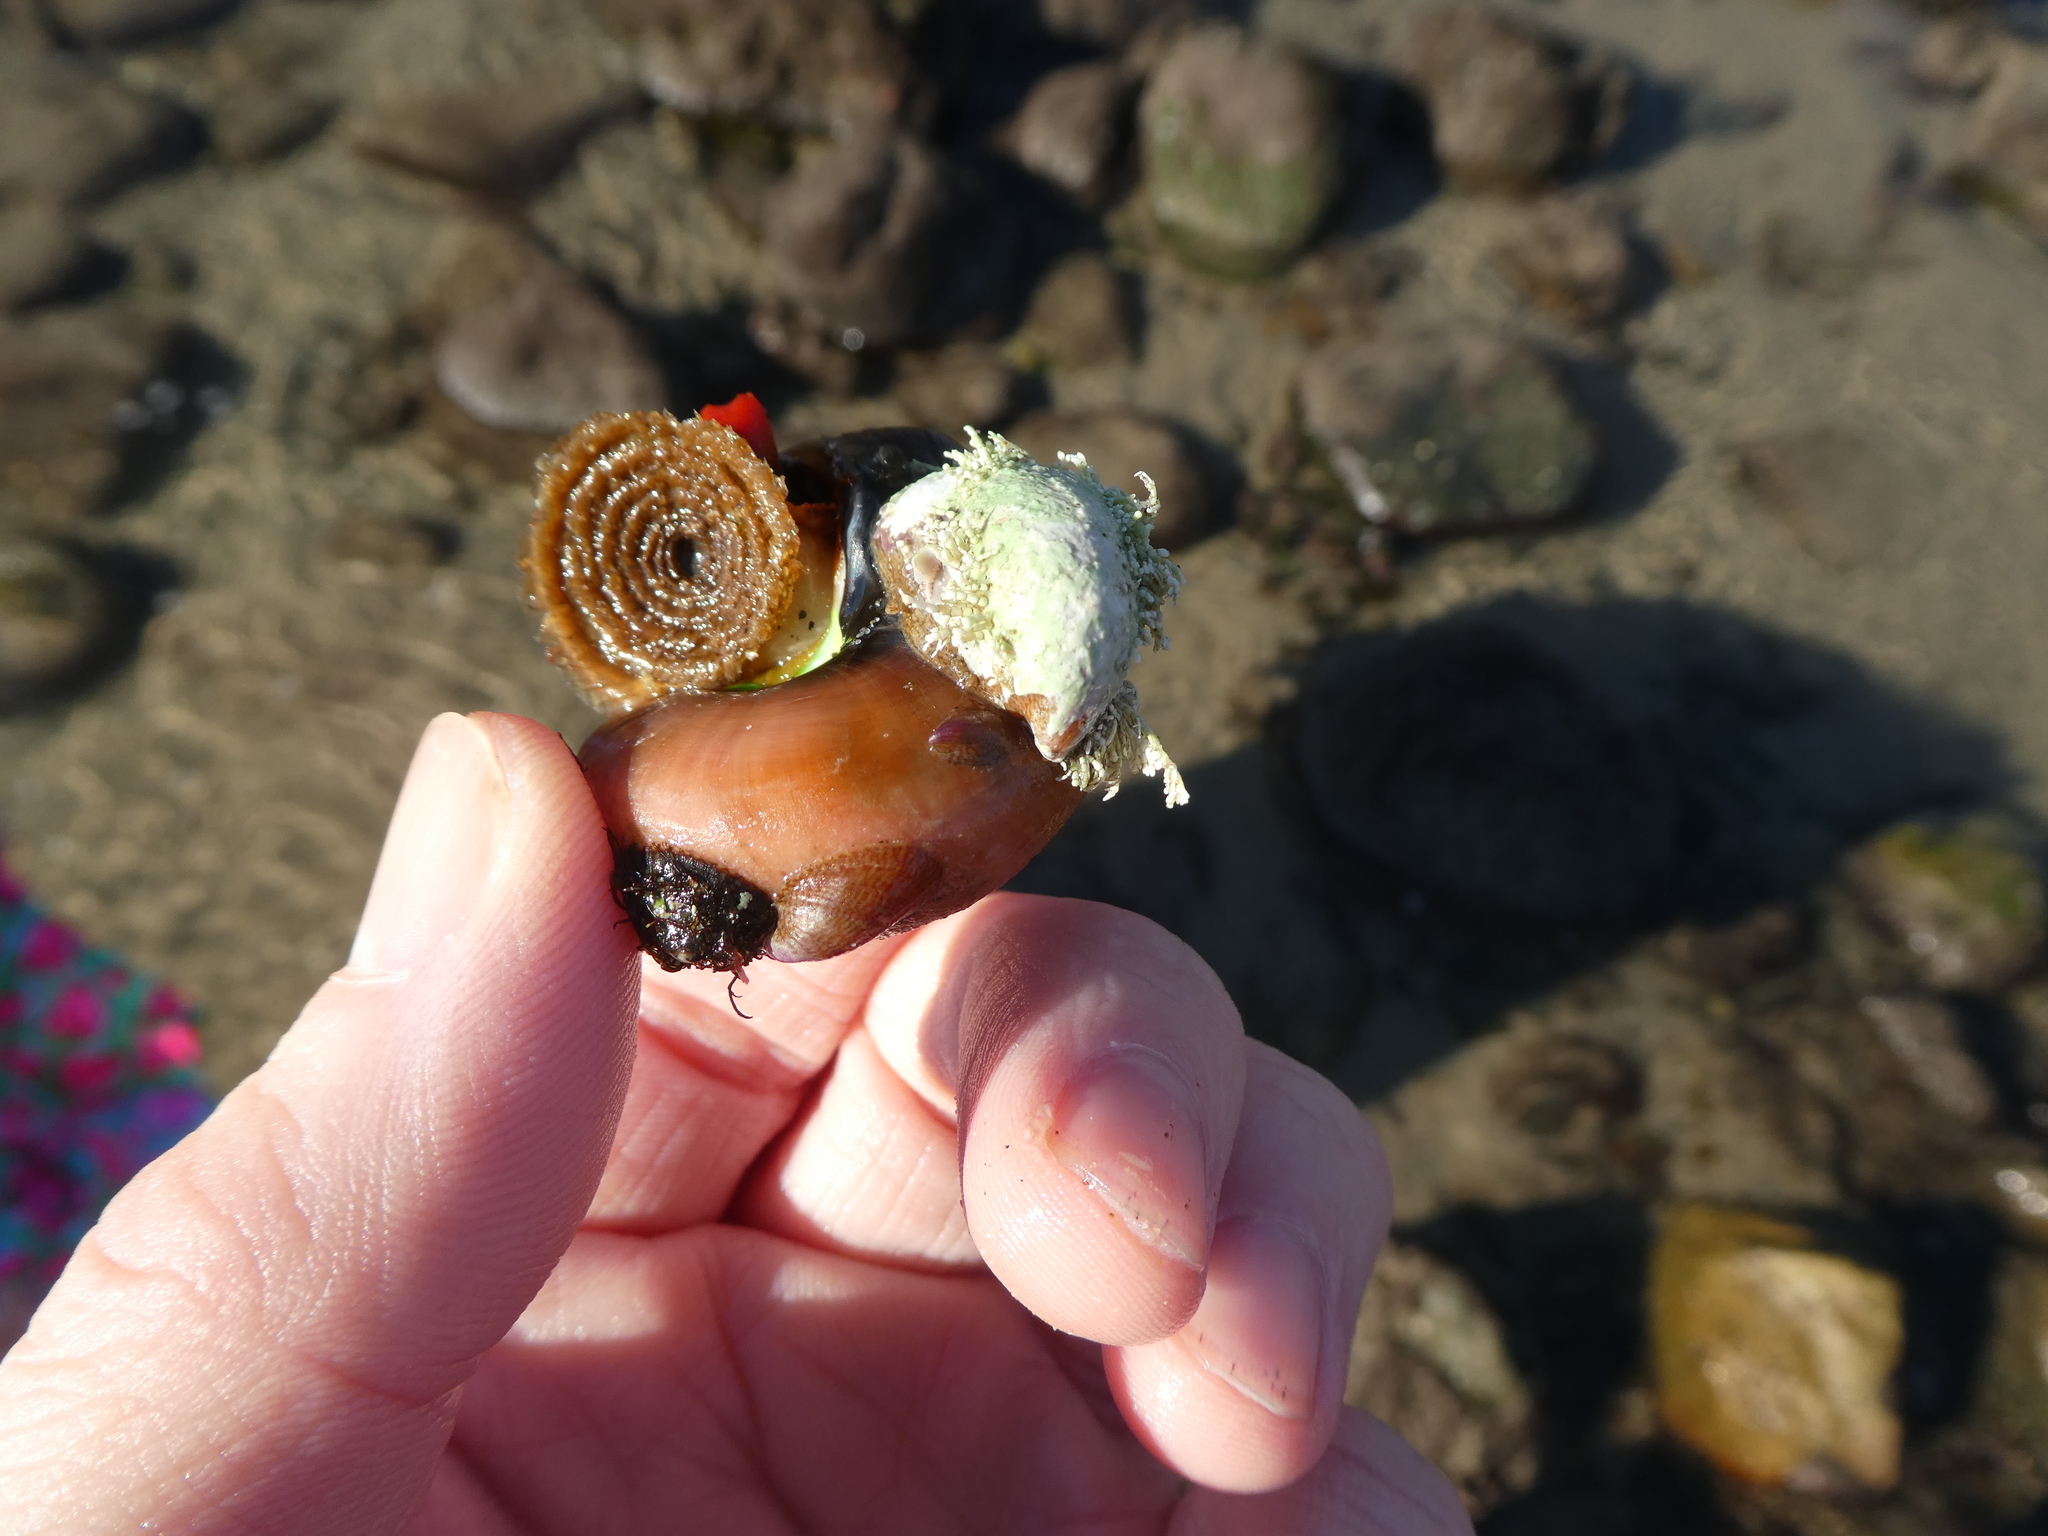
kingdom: Animalia
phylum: Mollusca
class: Gastropoda
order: Trochida
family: Tegulidae
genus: Norrisia
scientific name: Norrisia norrisii
